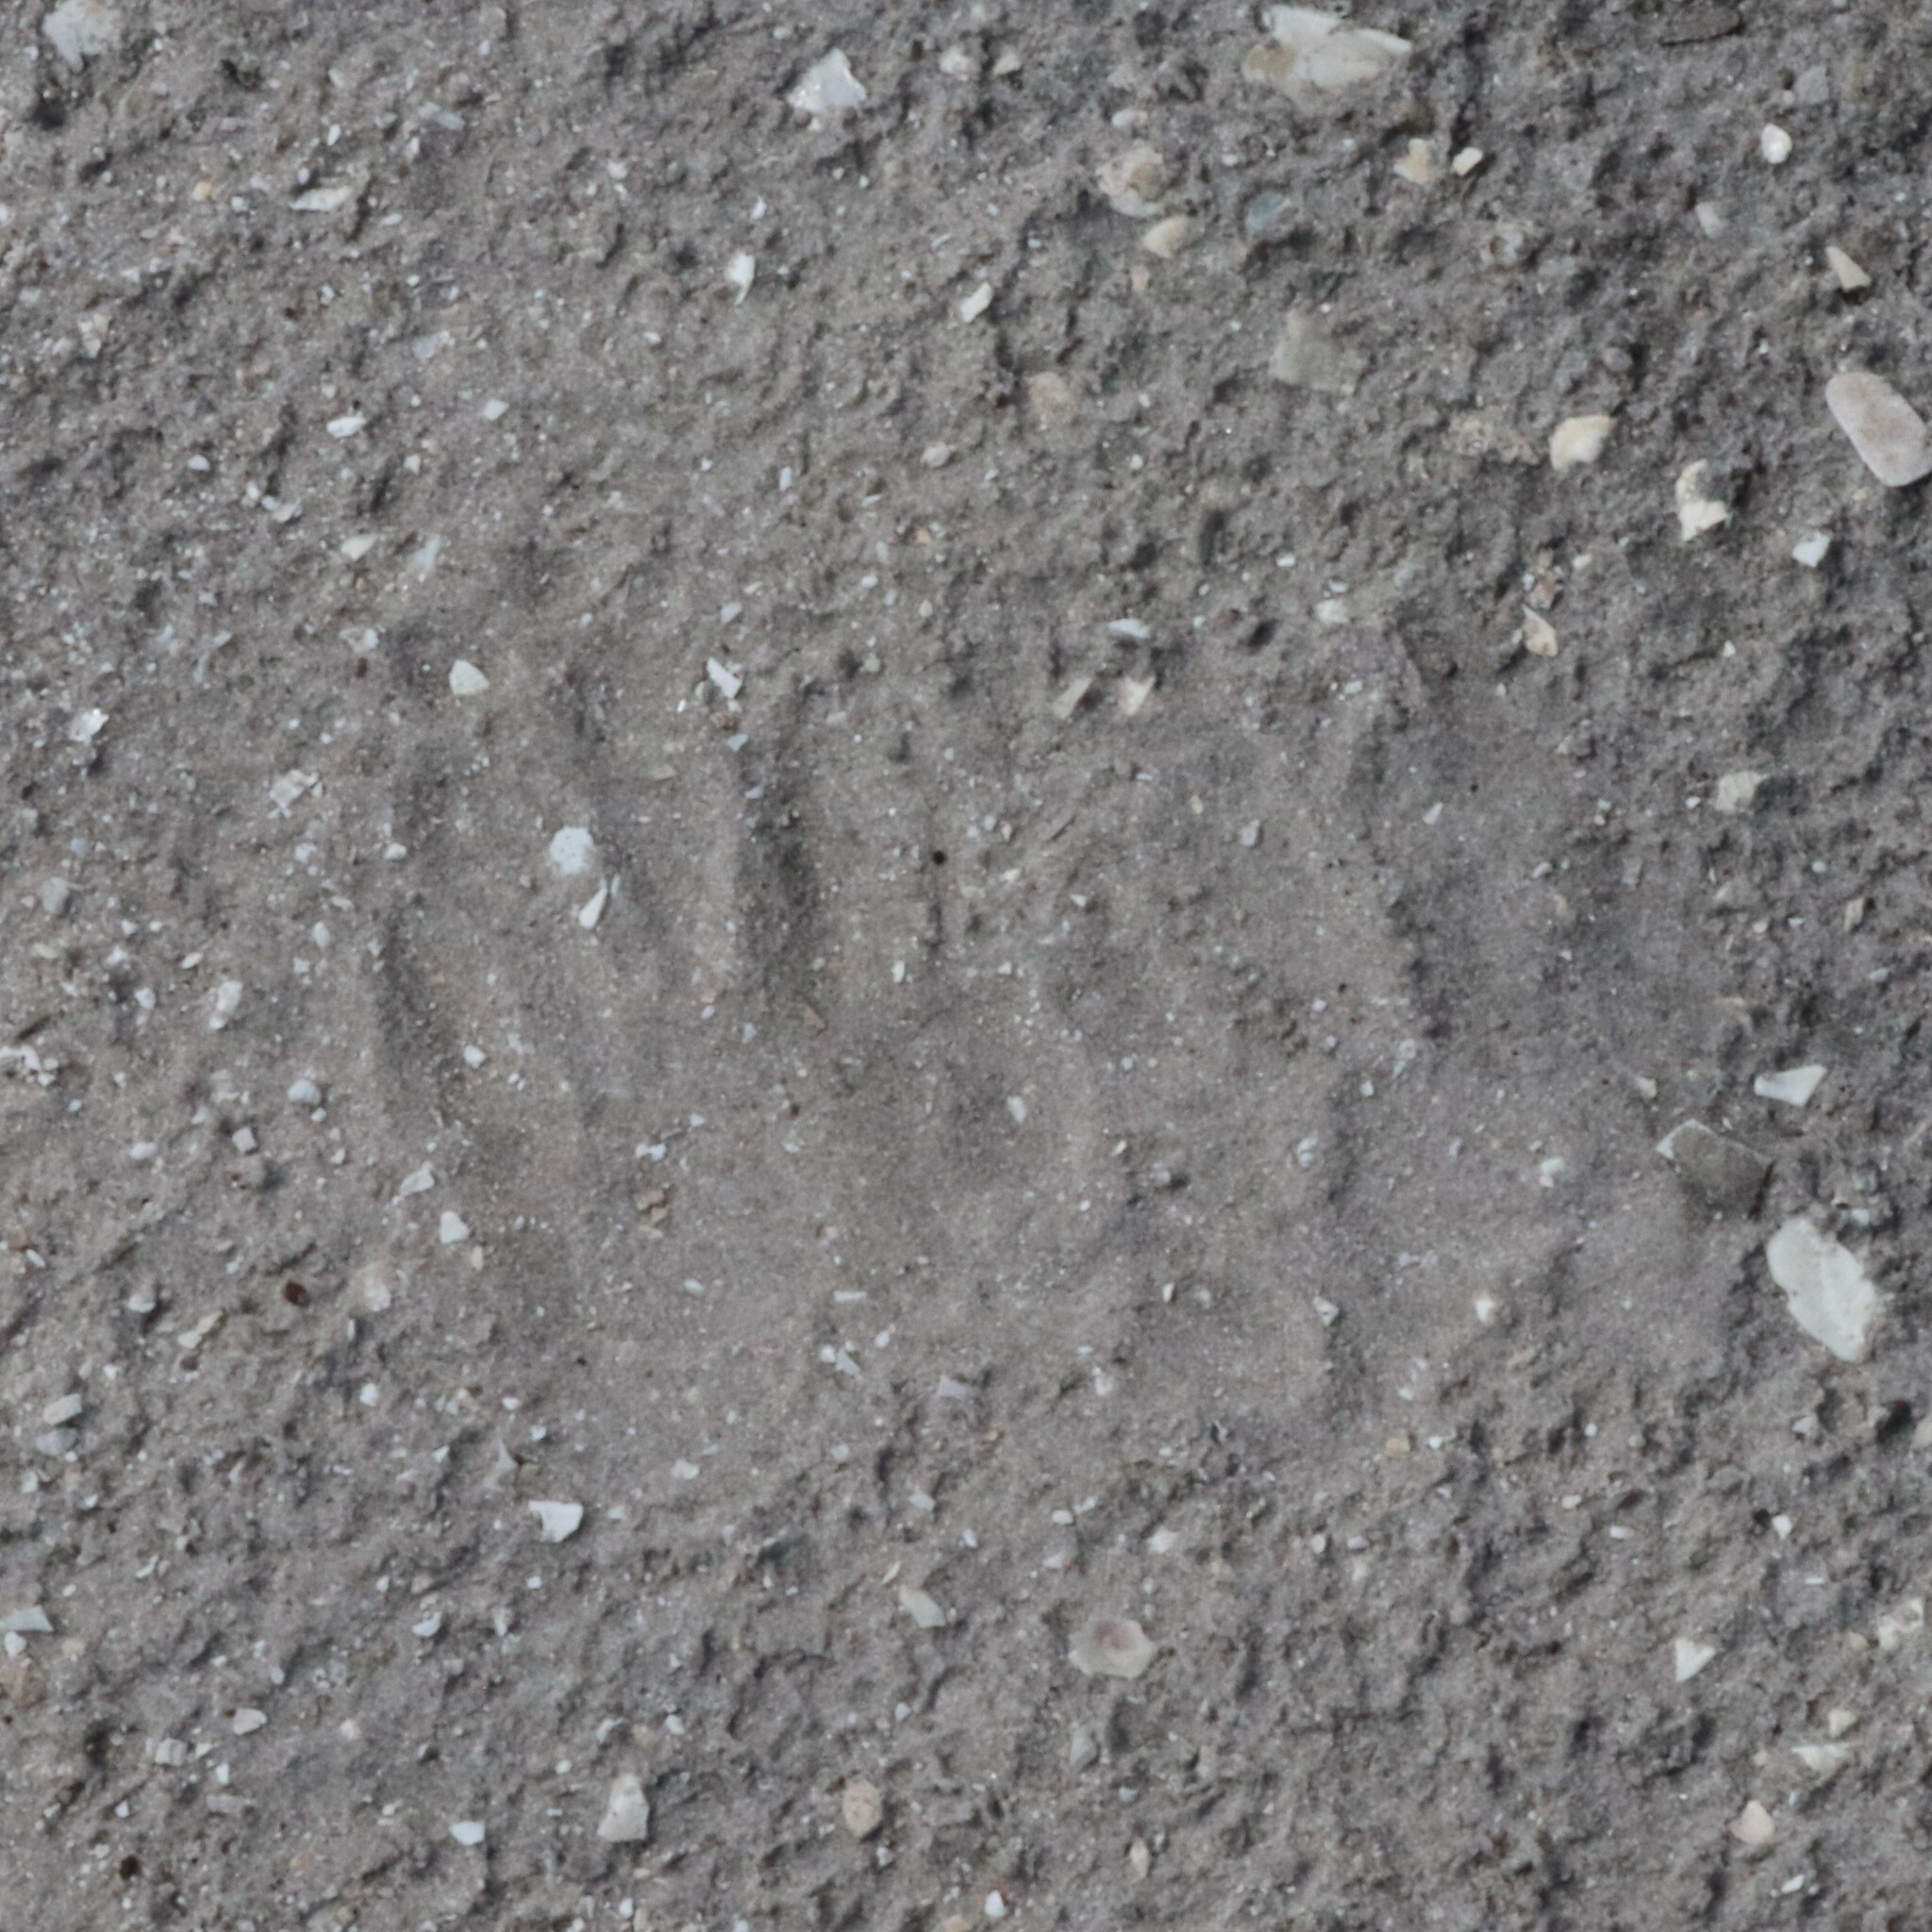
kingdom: Animalia
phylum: Chordata
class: Mammalia
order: Carnivora
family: Procyonidae
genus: Procyon
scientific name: Procyon lotor
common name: Raccoon
